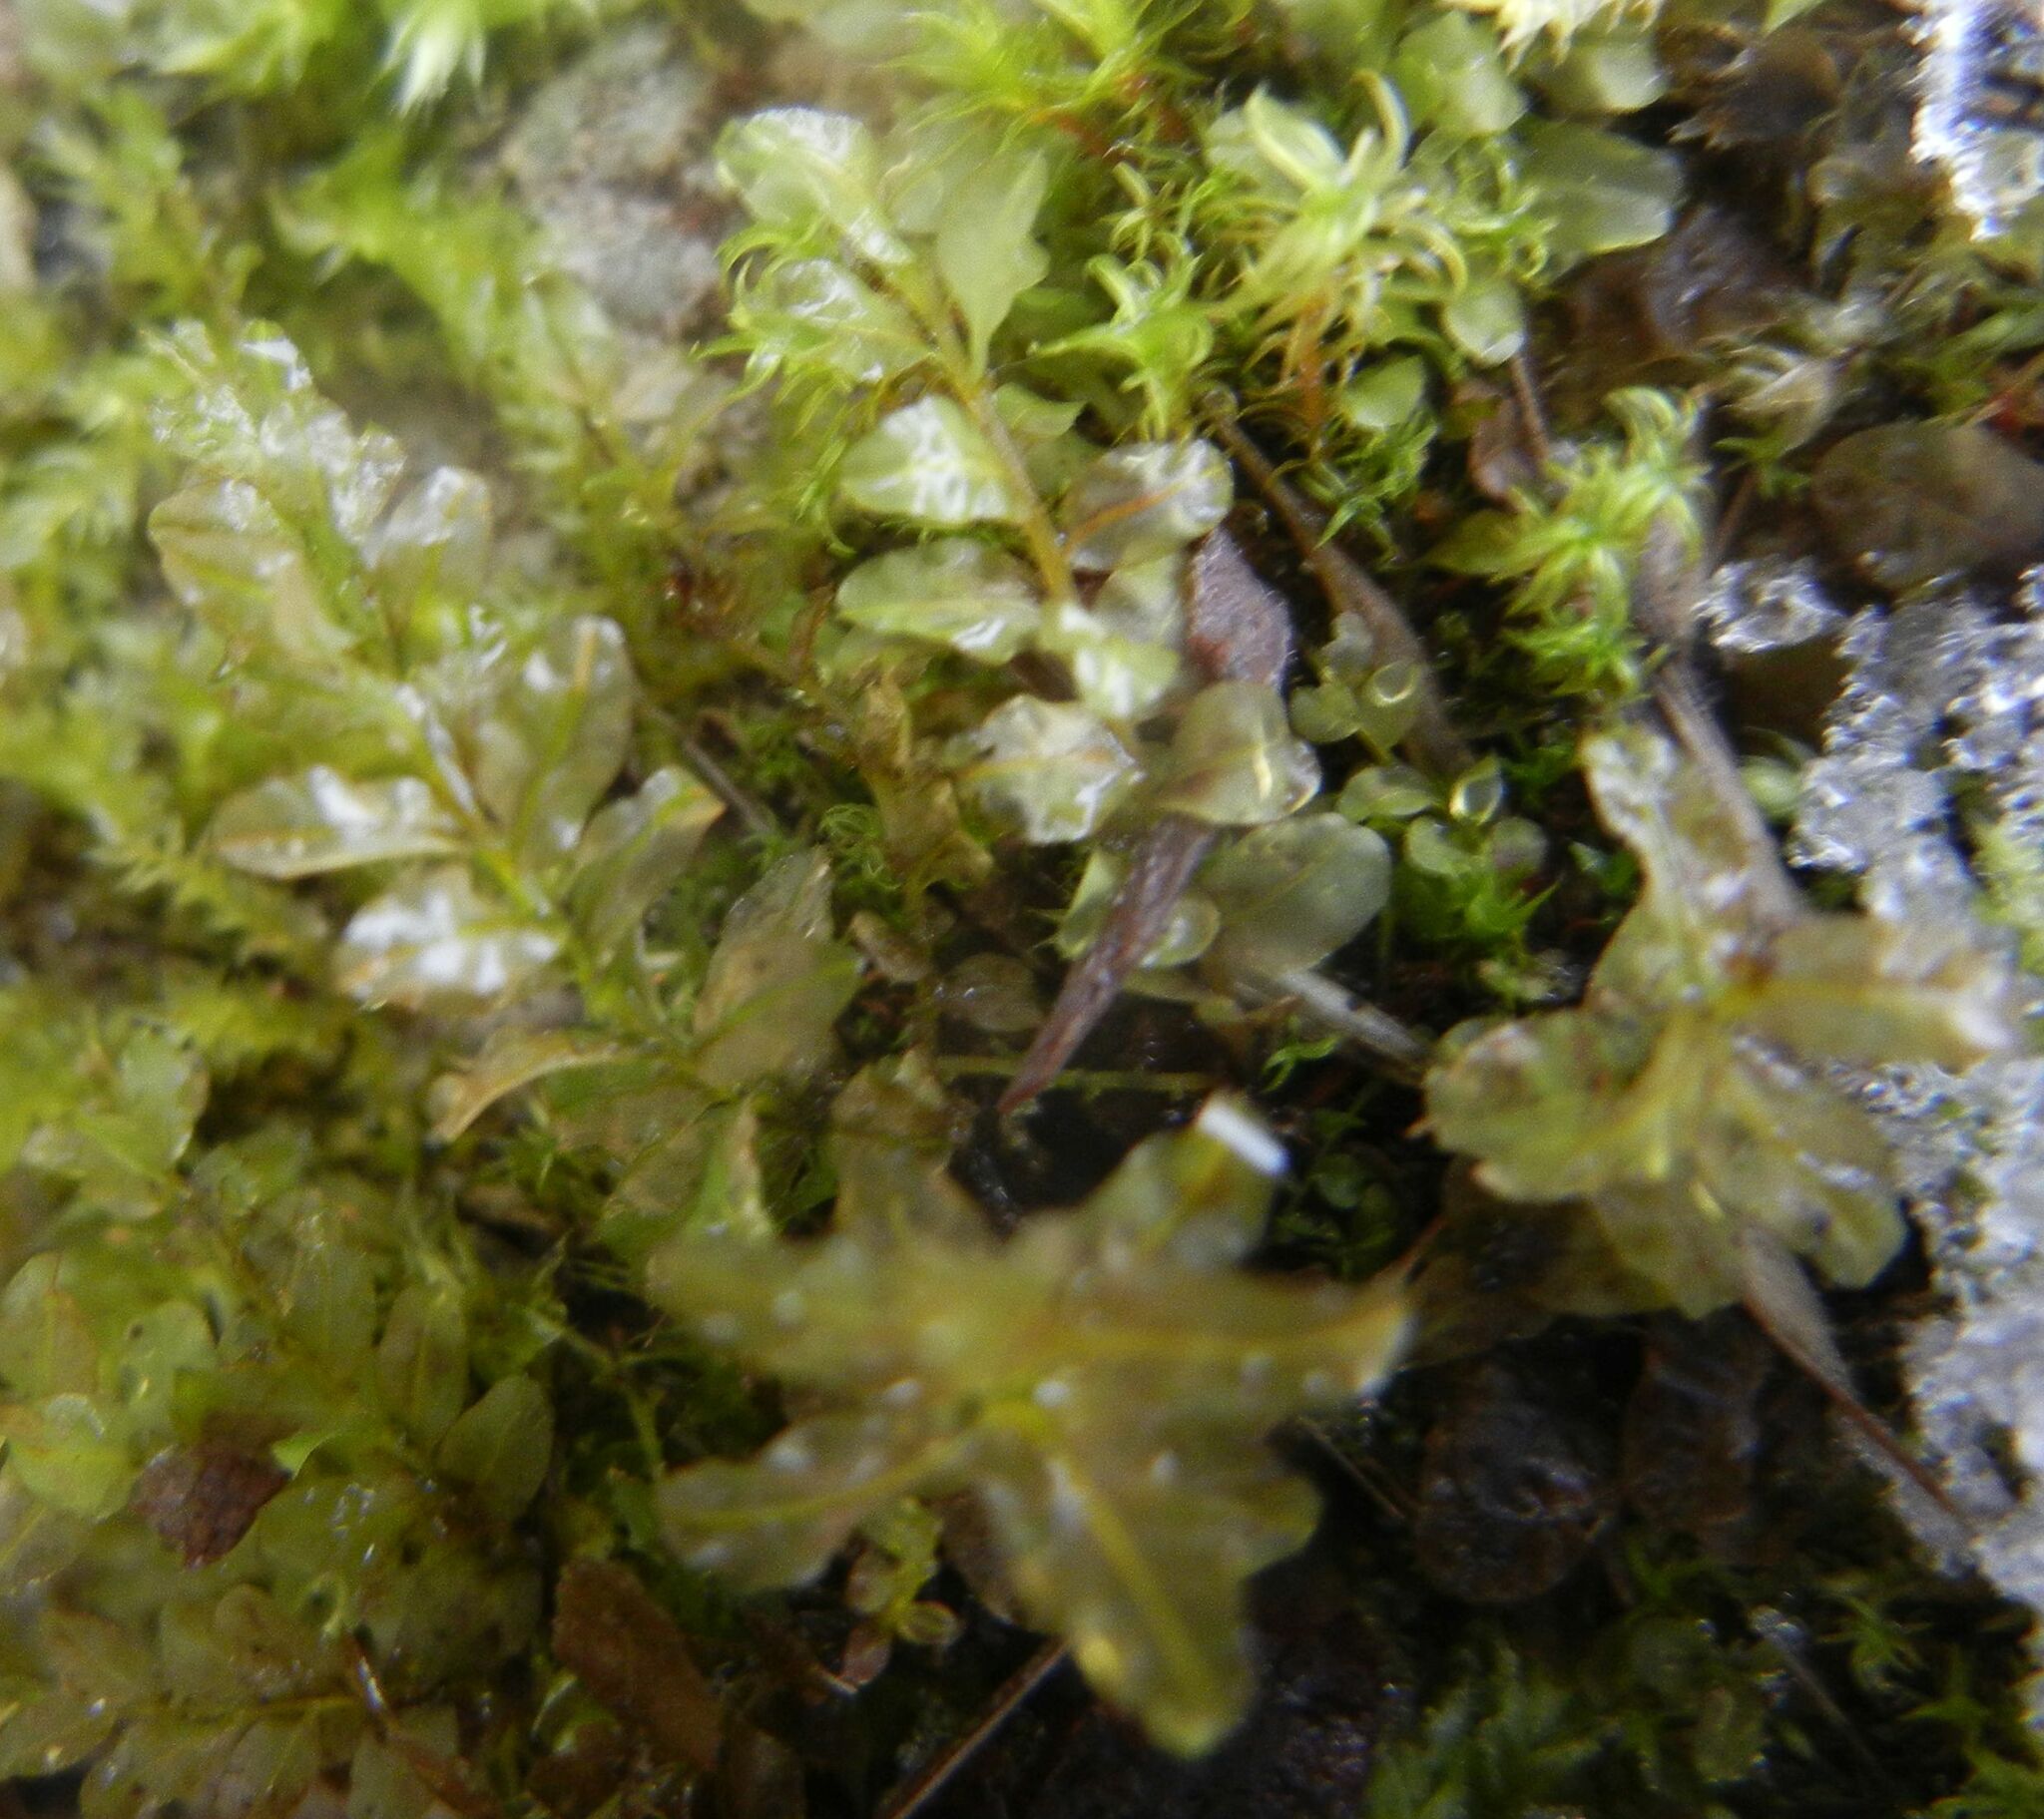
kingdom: Plantae
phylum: Bryophyta
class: Bryopsida
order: Bryales
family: Mniaceae
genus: Plagiomnium
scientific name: Plagiomnium undulatum
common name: Hart's-tongue thyme-moss
